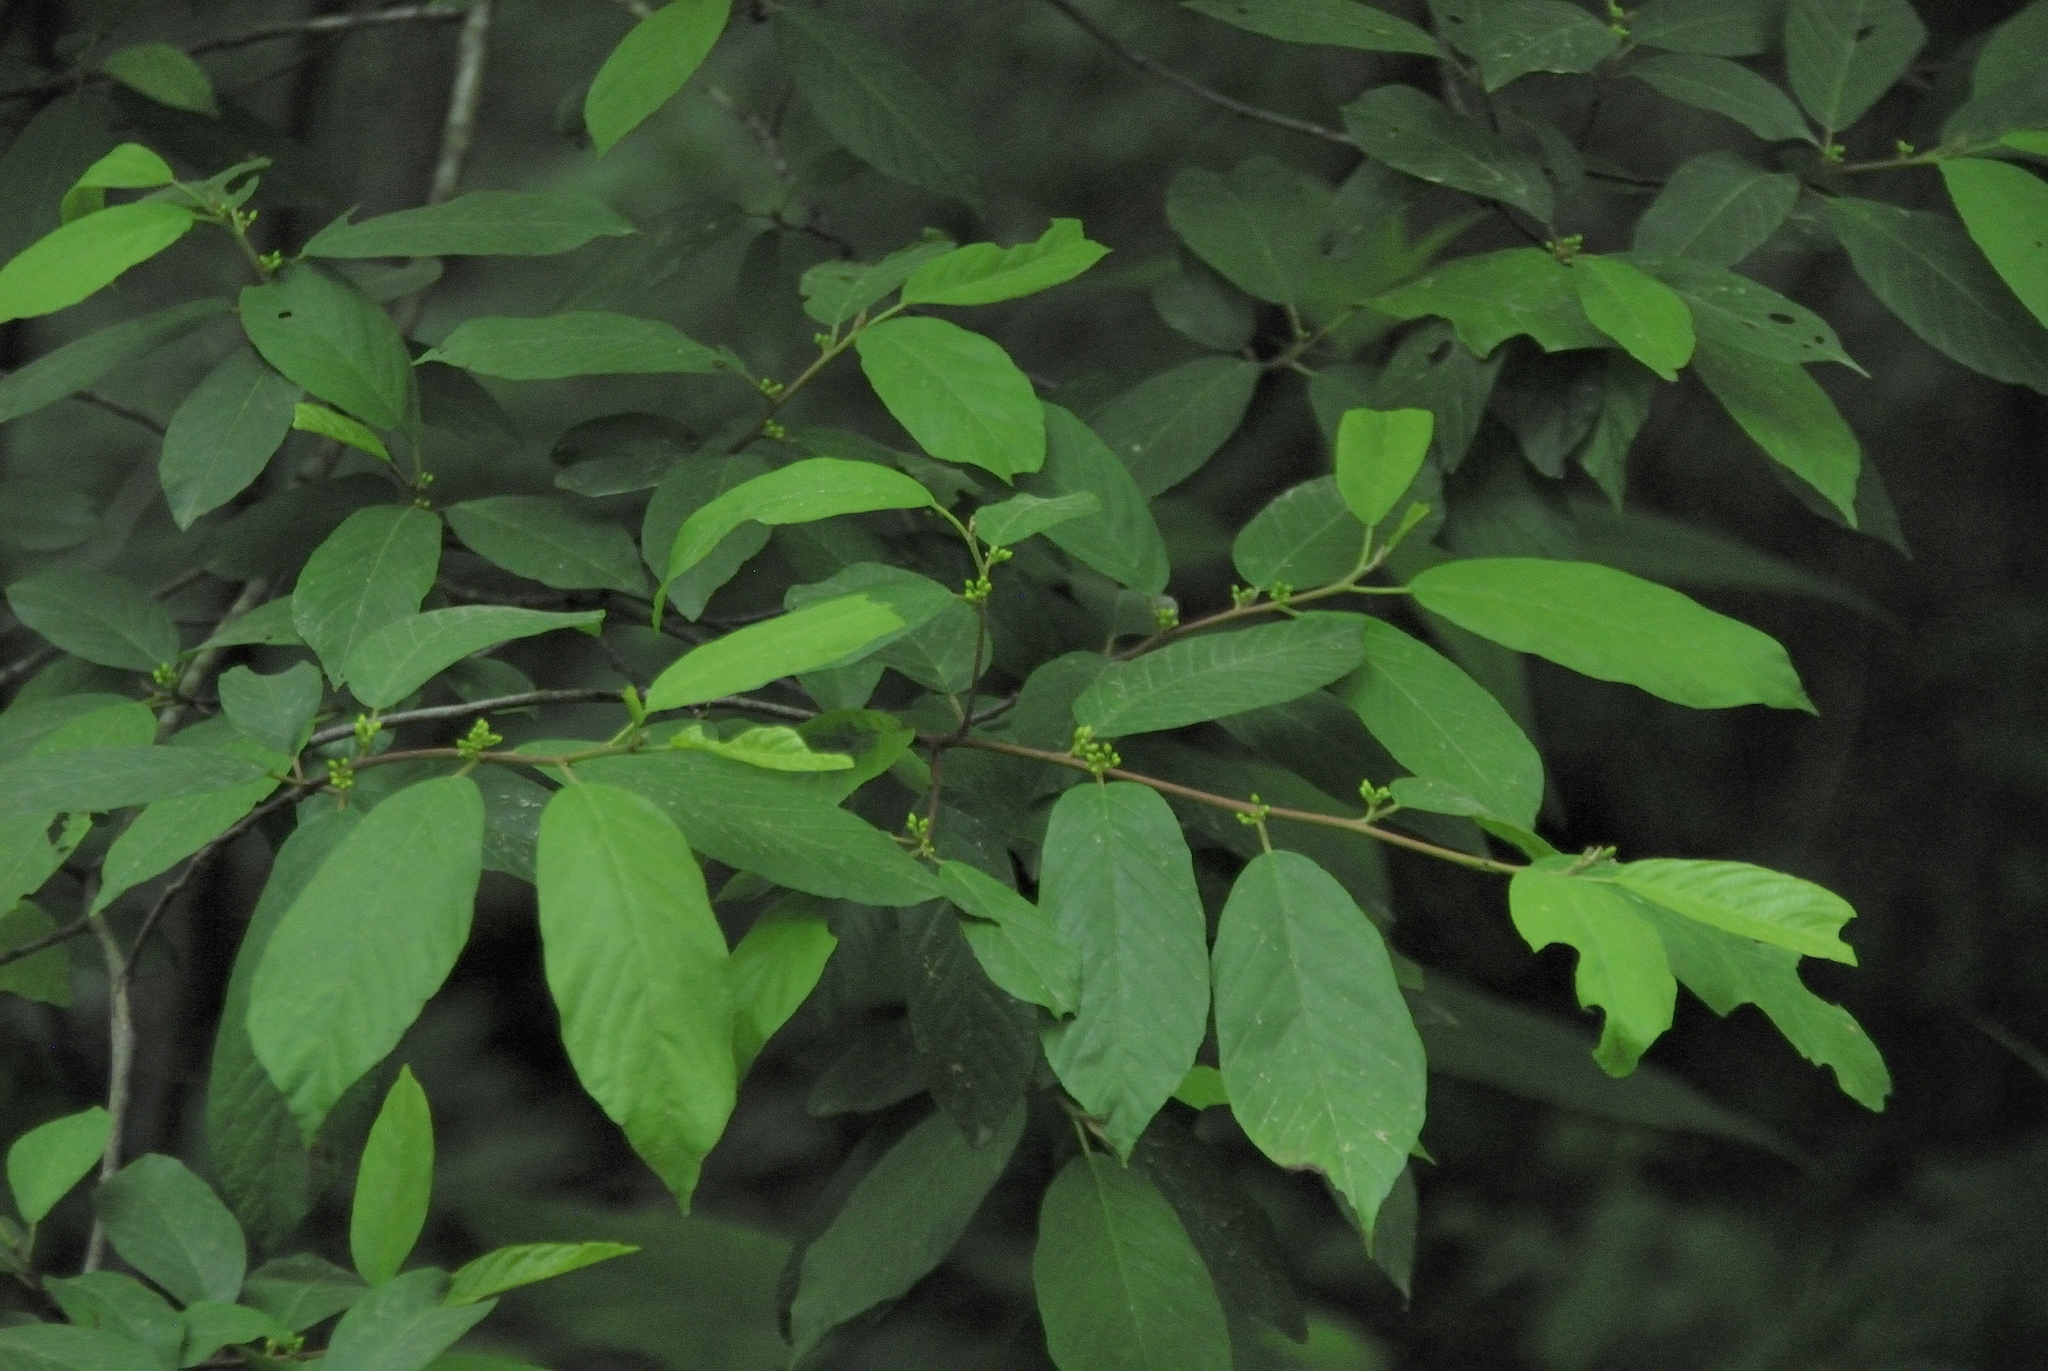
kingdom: Plantae
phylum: Tracheophyta
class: Magnoliopsida
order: Rosales
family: Rhamnaceae
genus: Frangula
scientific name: Frangula caroliniana
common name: Carolina buckthorn
